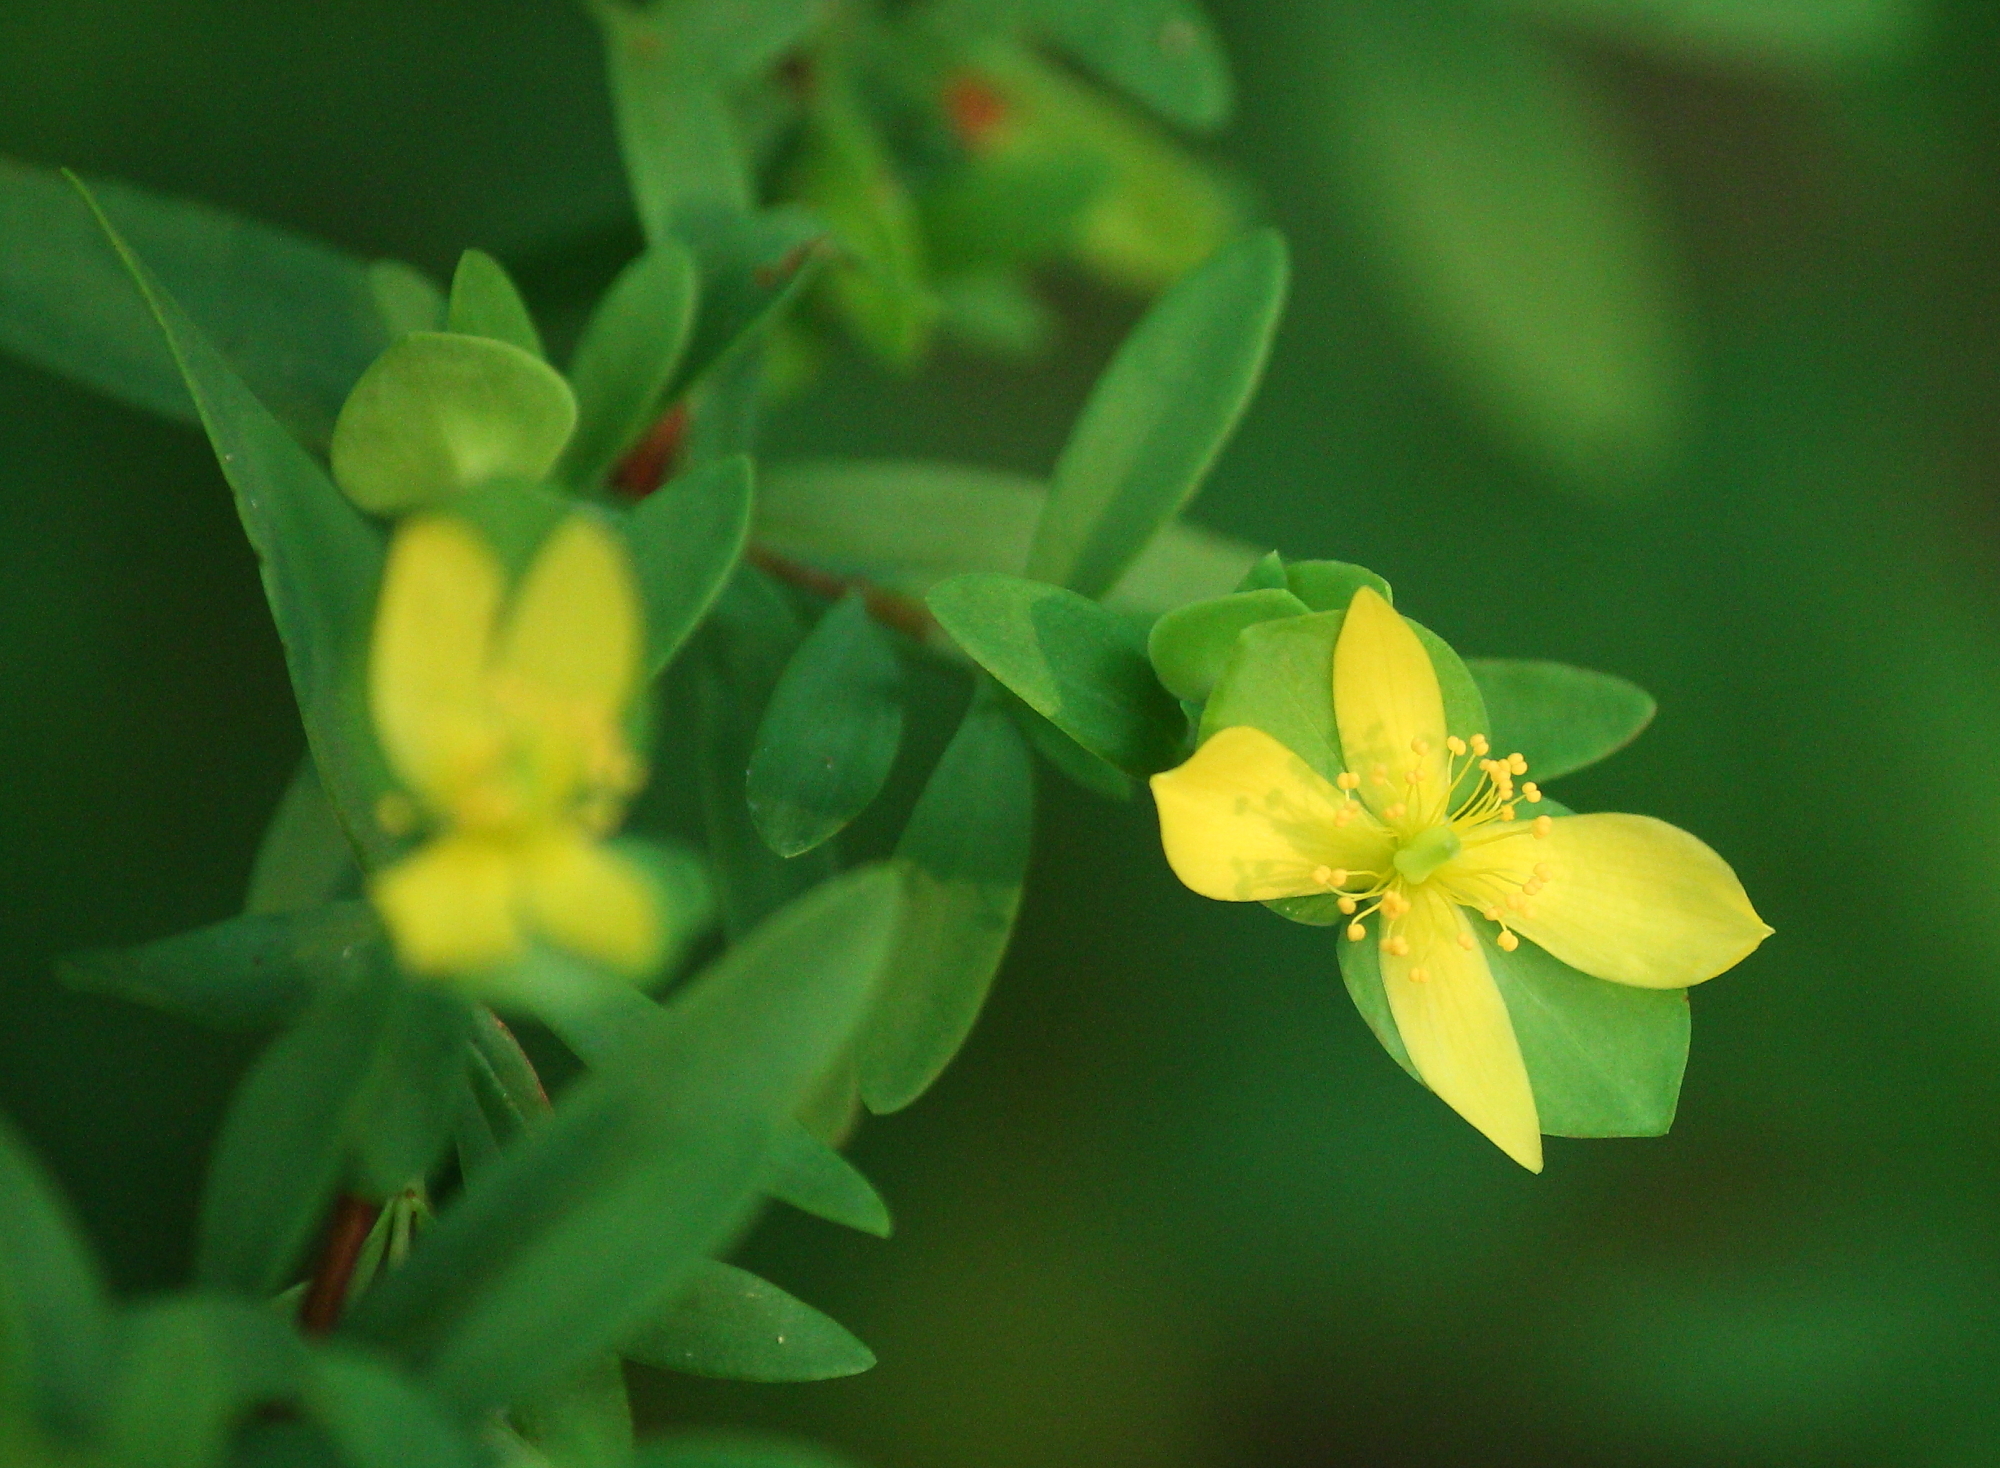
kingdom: Plantae
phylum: Tracheophyta
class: Magnoliopsida
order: Malpighiales
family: Hypericaceae
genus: Hypericum
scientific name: Hypericum hypericoides
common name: St. andrew's cross
